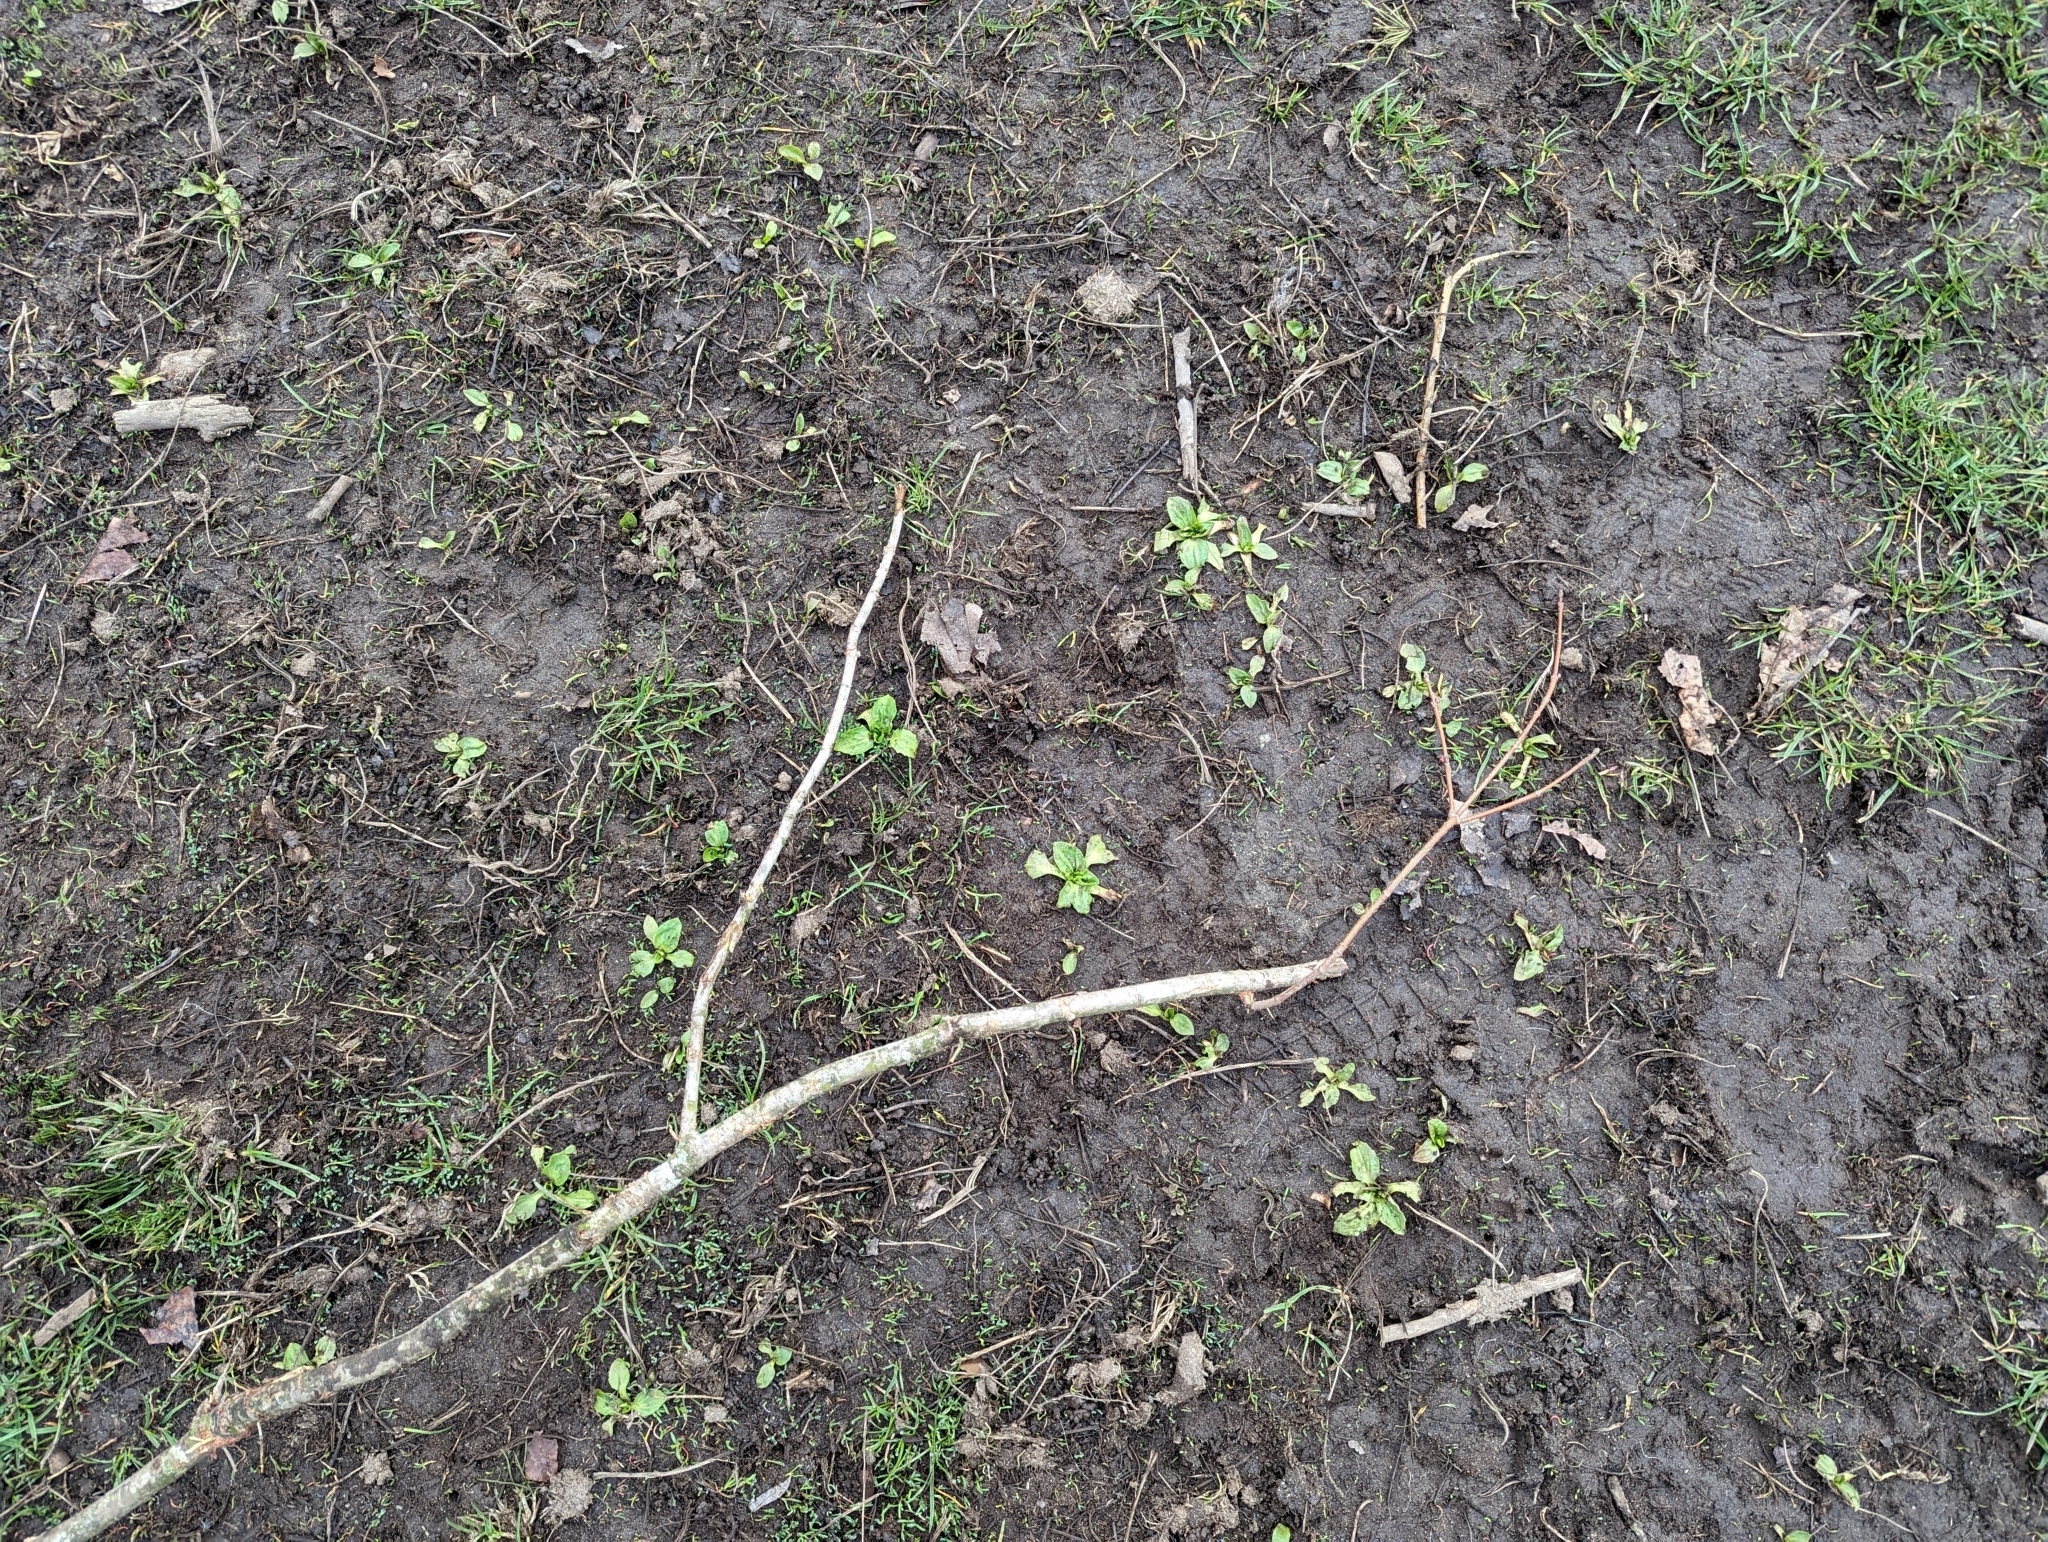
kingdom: Plantae
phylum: Tracheophyta
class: Magnoliopsida
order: Lamiales
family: Plantaginaceae
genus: Plantago
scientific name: Plantago major
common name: Common plantain
